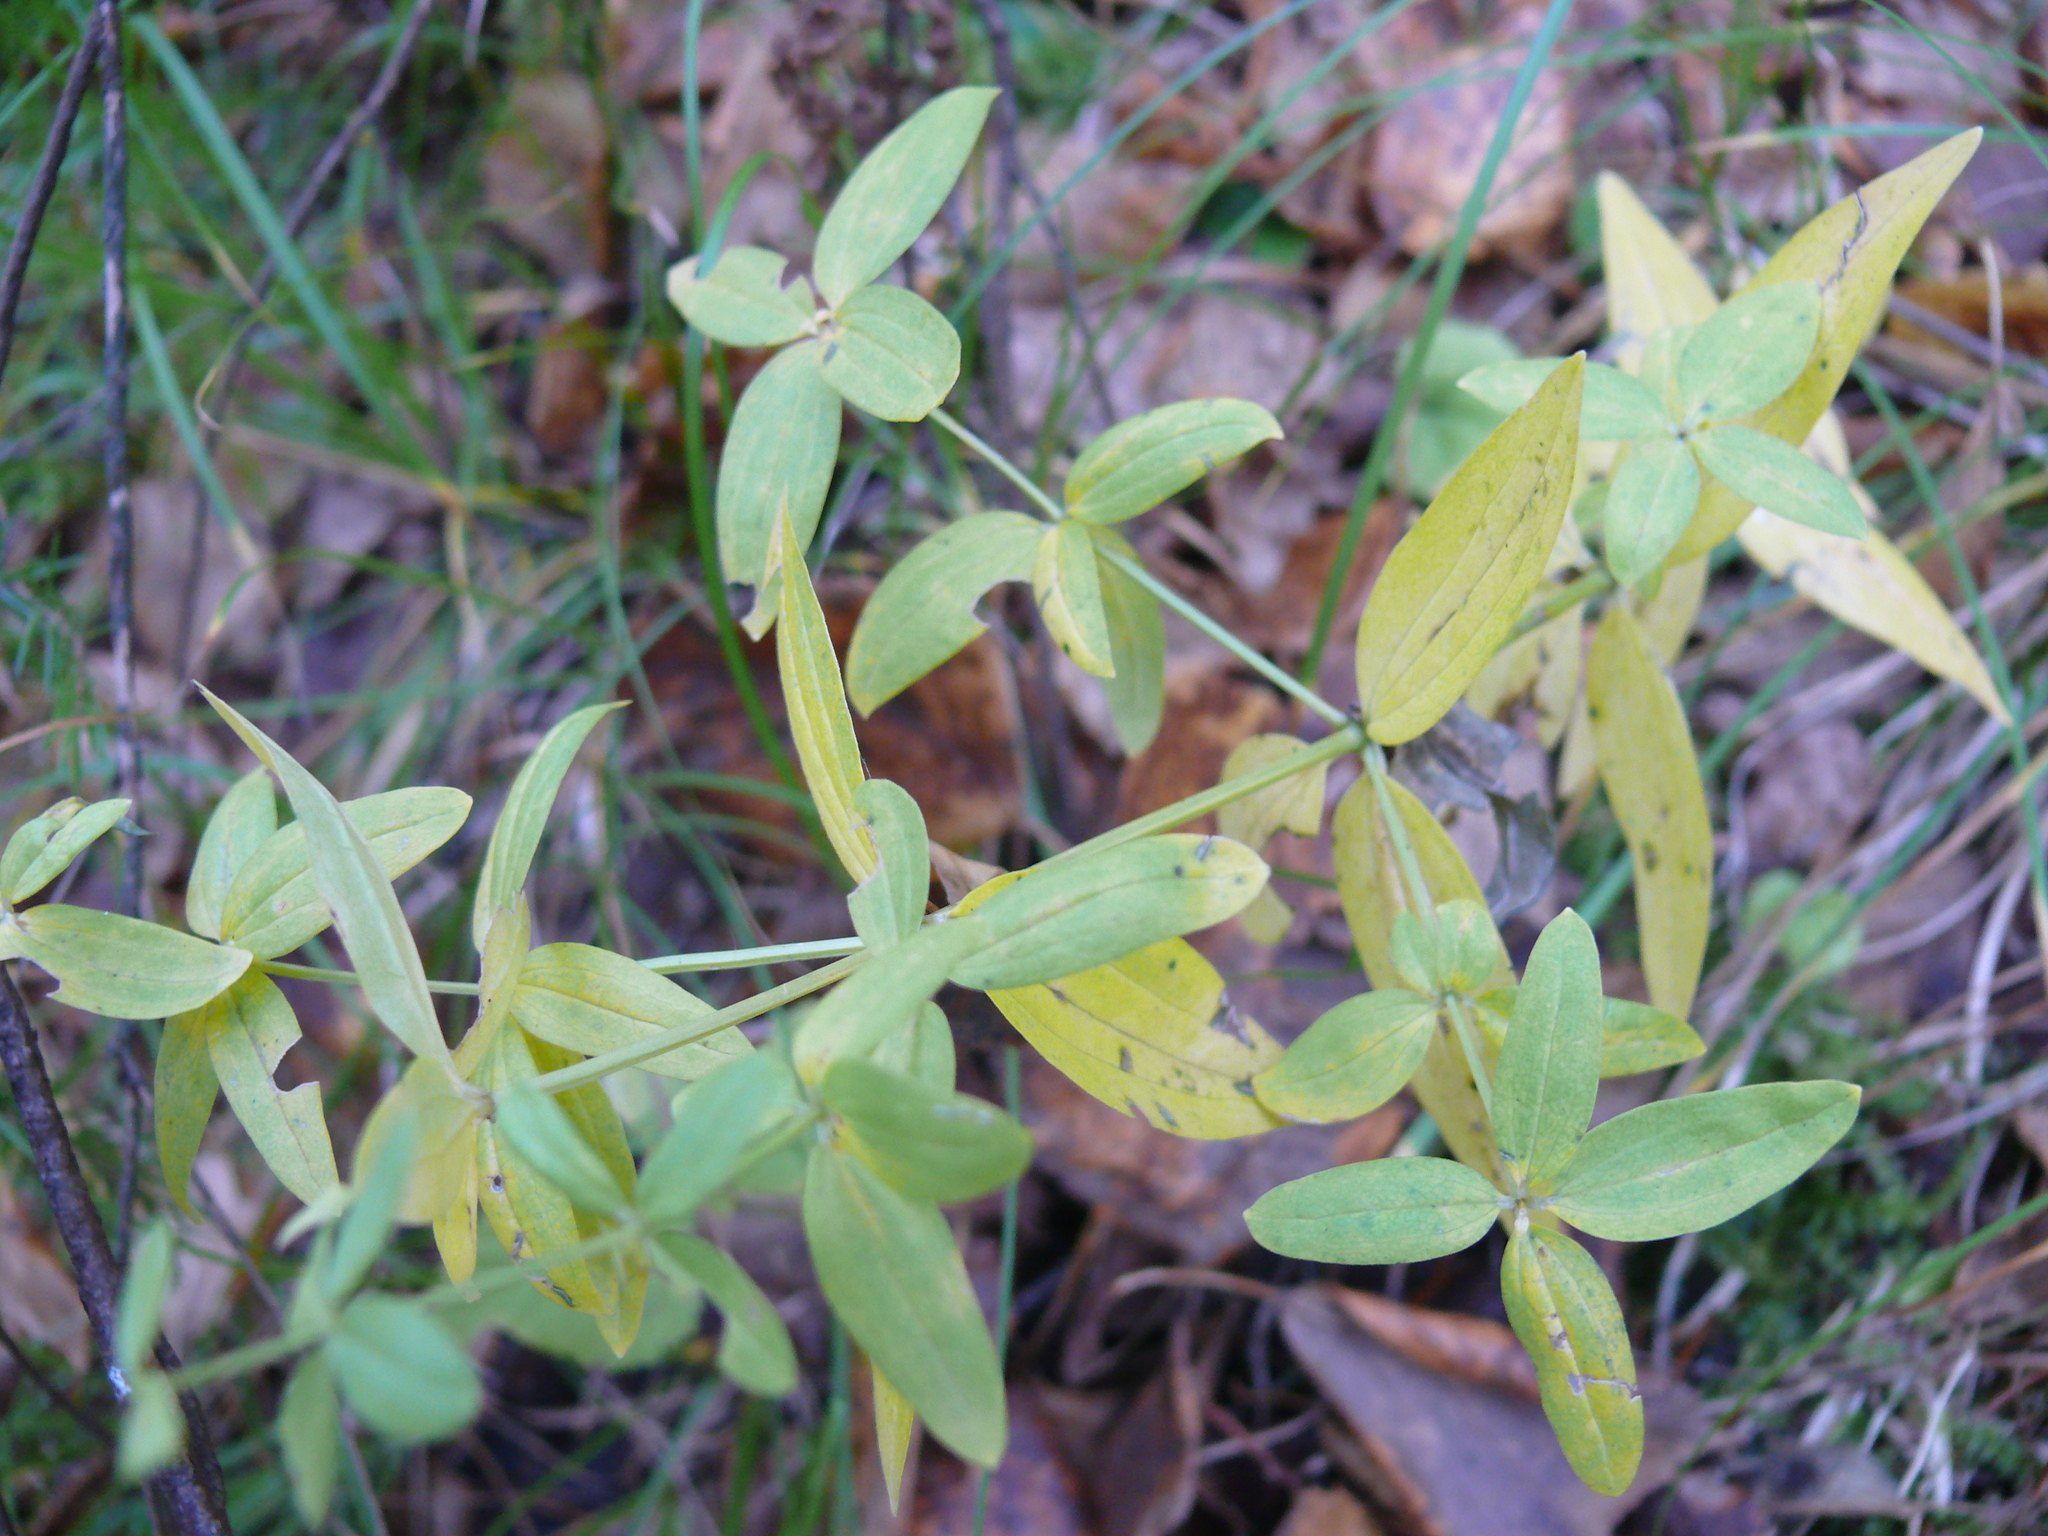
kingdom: Plantae
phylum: Tracheophyta
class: Magnoliopsida
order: Gentianales
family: Rubiaceae
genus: Galium
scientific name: Galium boreale
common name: Northern bedstraw
